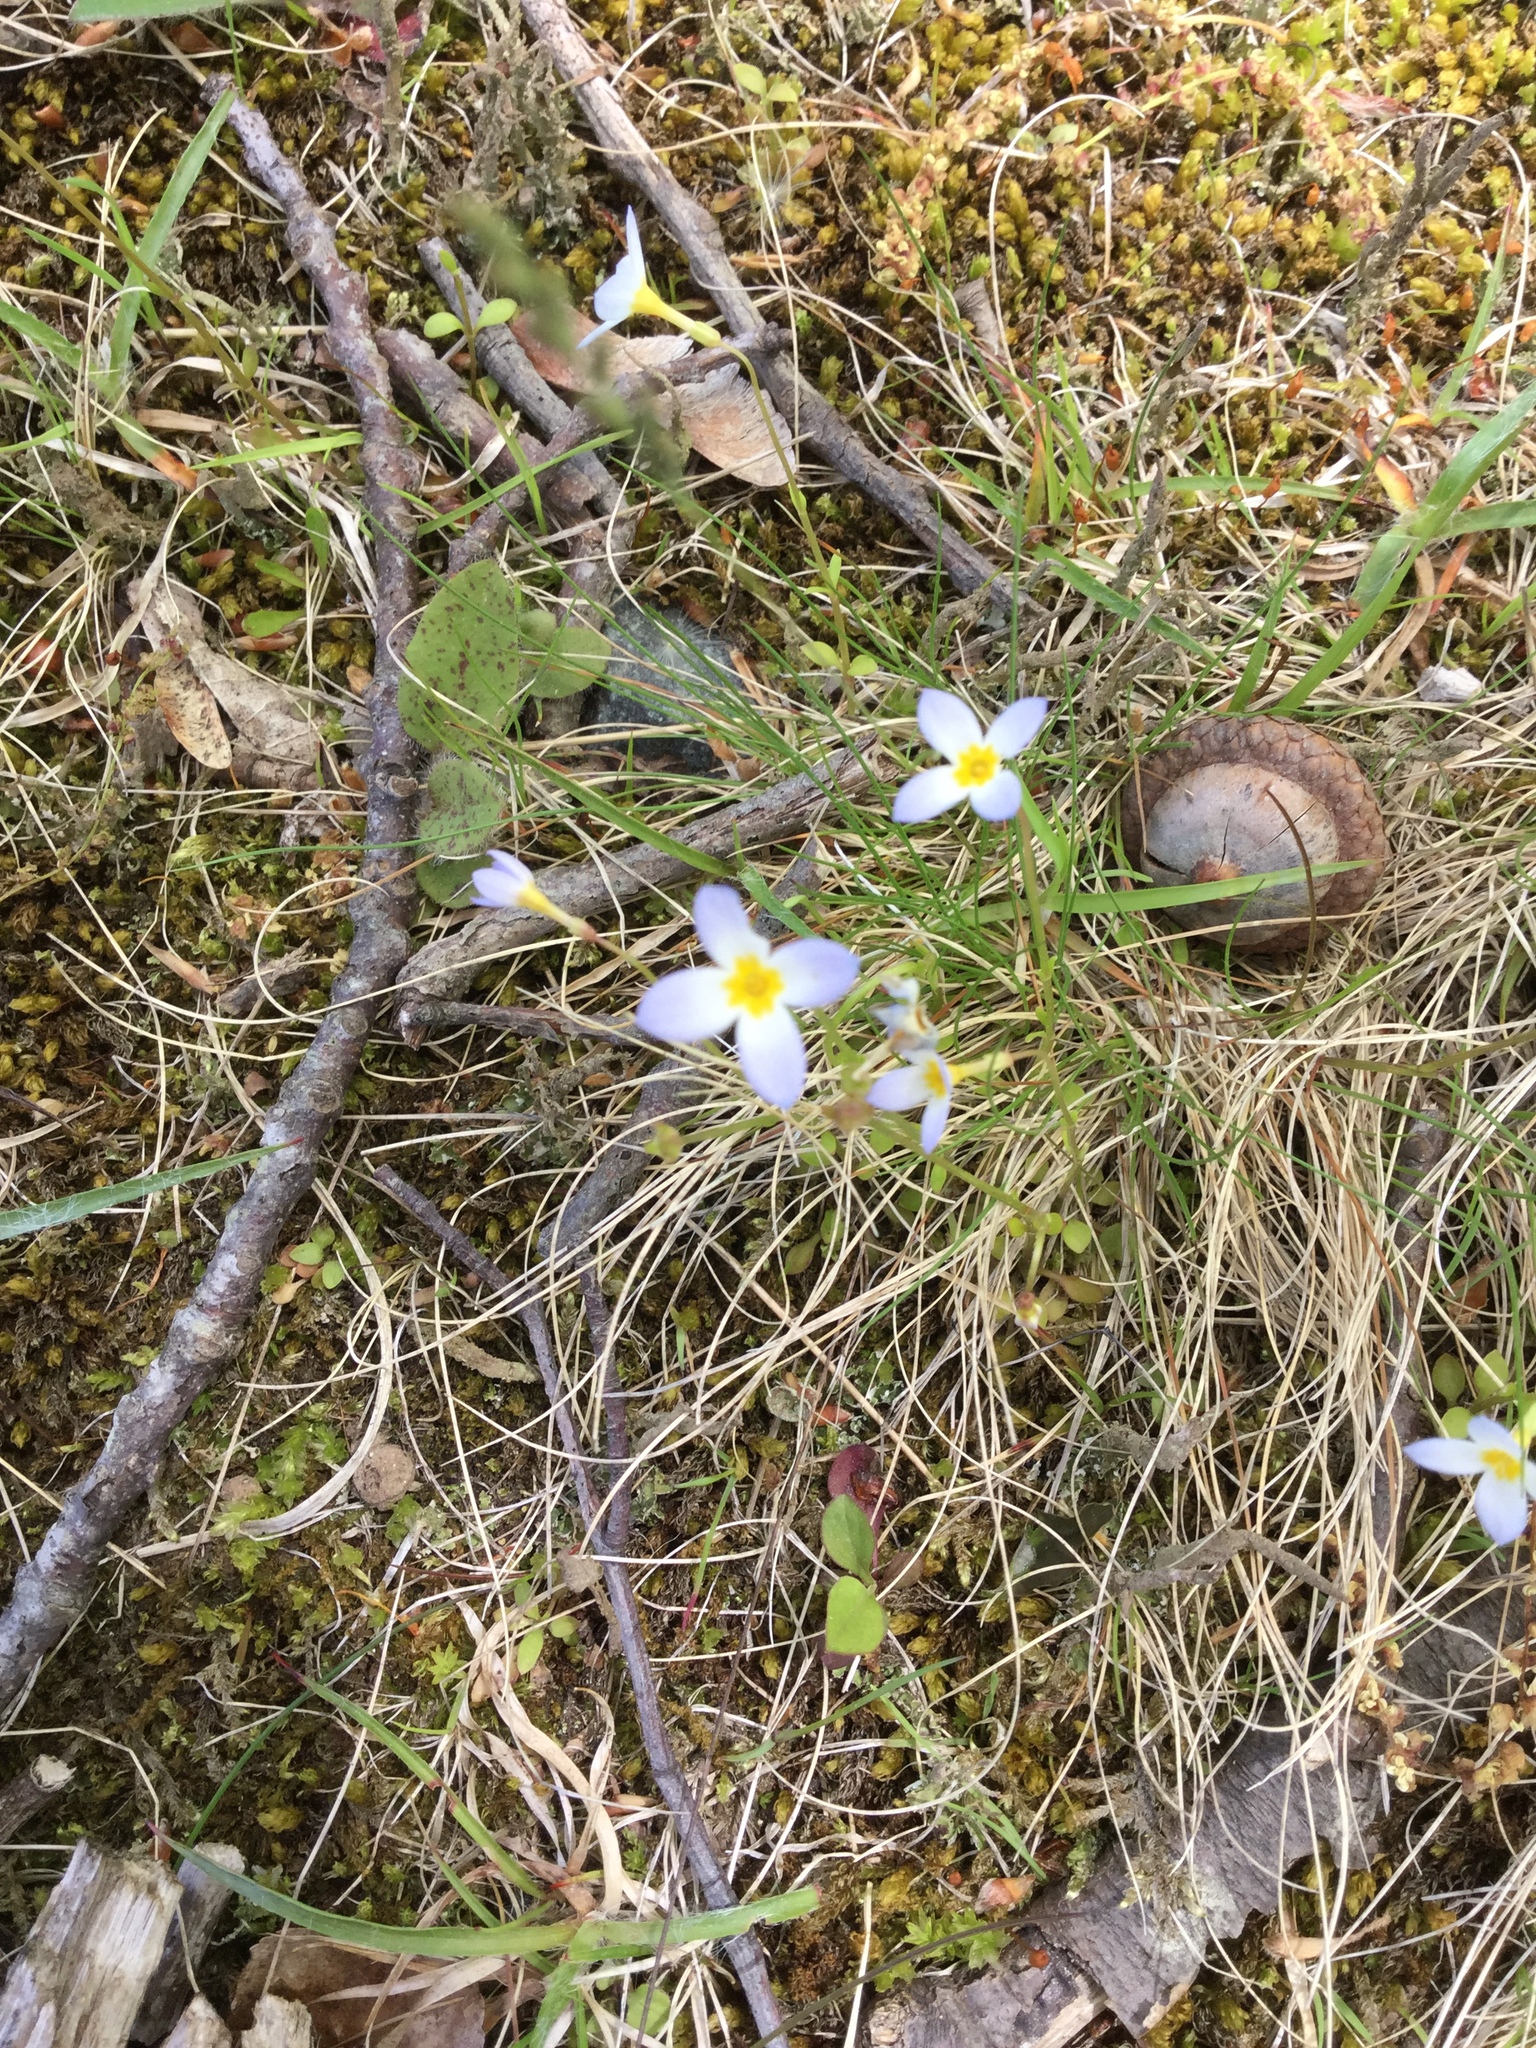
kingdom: Plantae
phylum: Tracheophyta
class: Magnoliopsida
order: Gentianales
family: Rubiaceae
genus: Houstonia
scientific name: Houstonia caerulea
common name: Bluets
